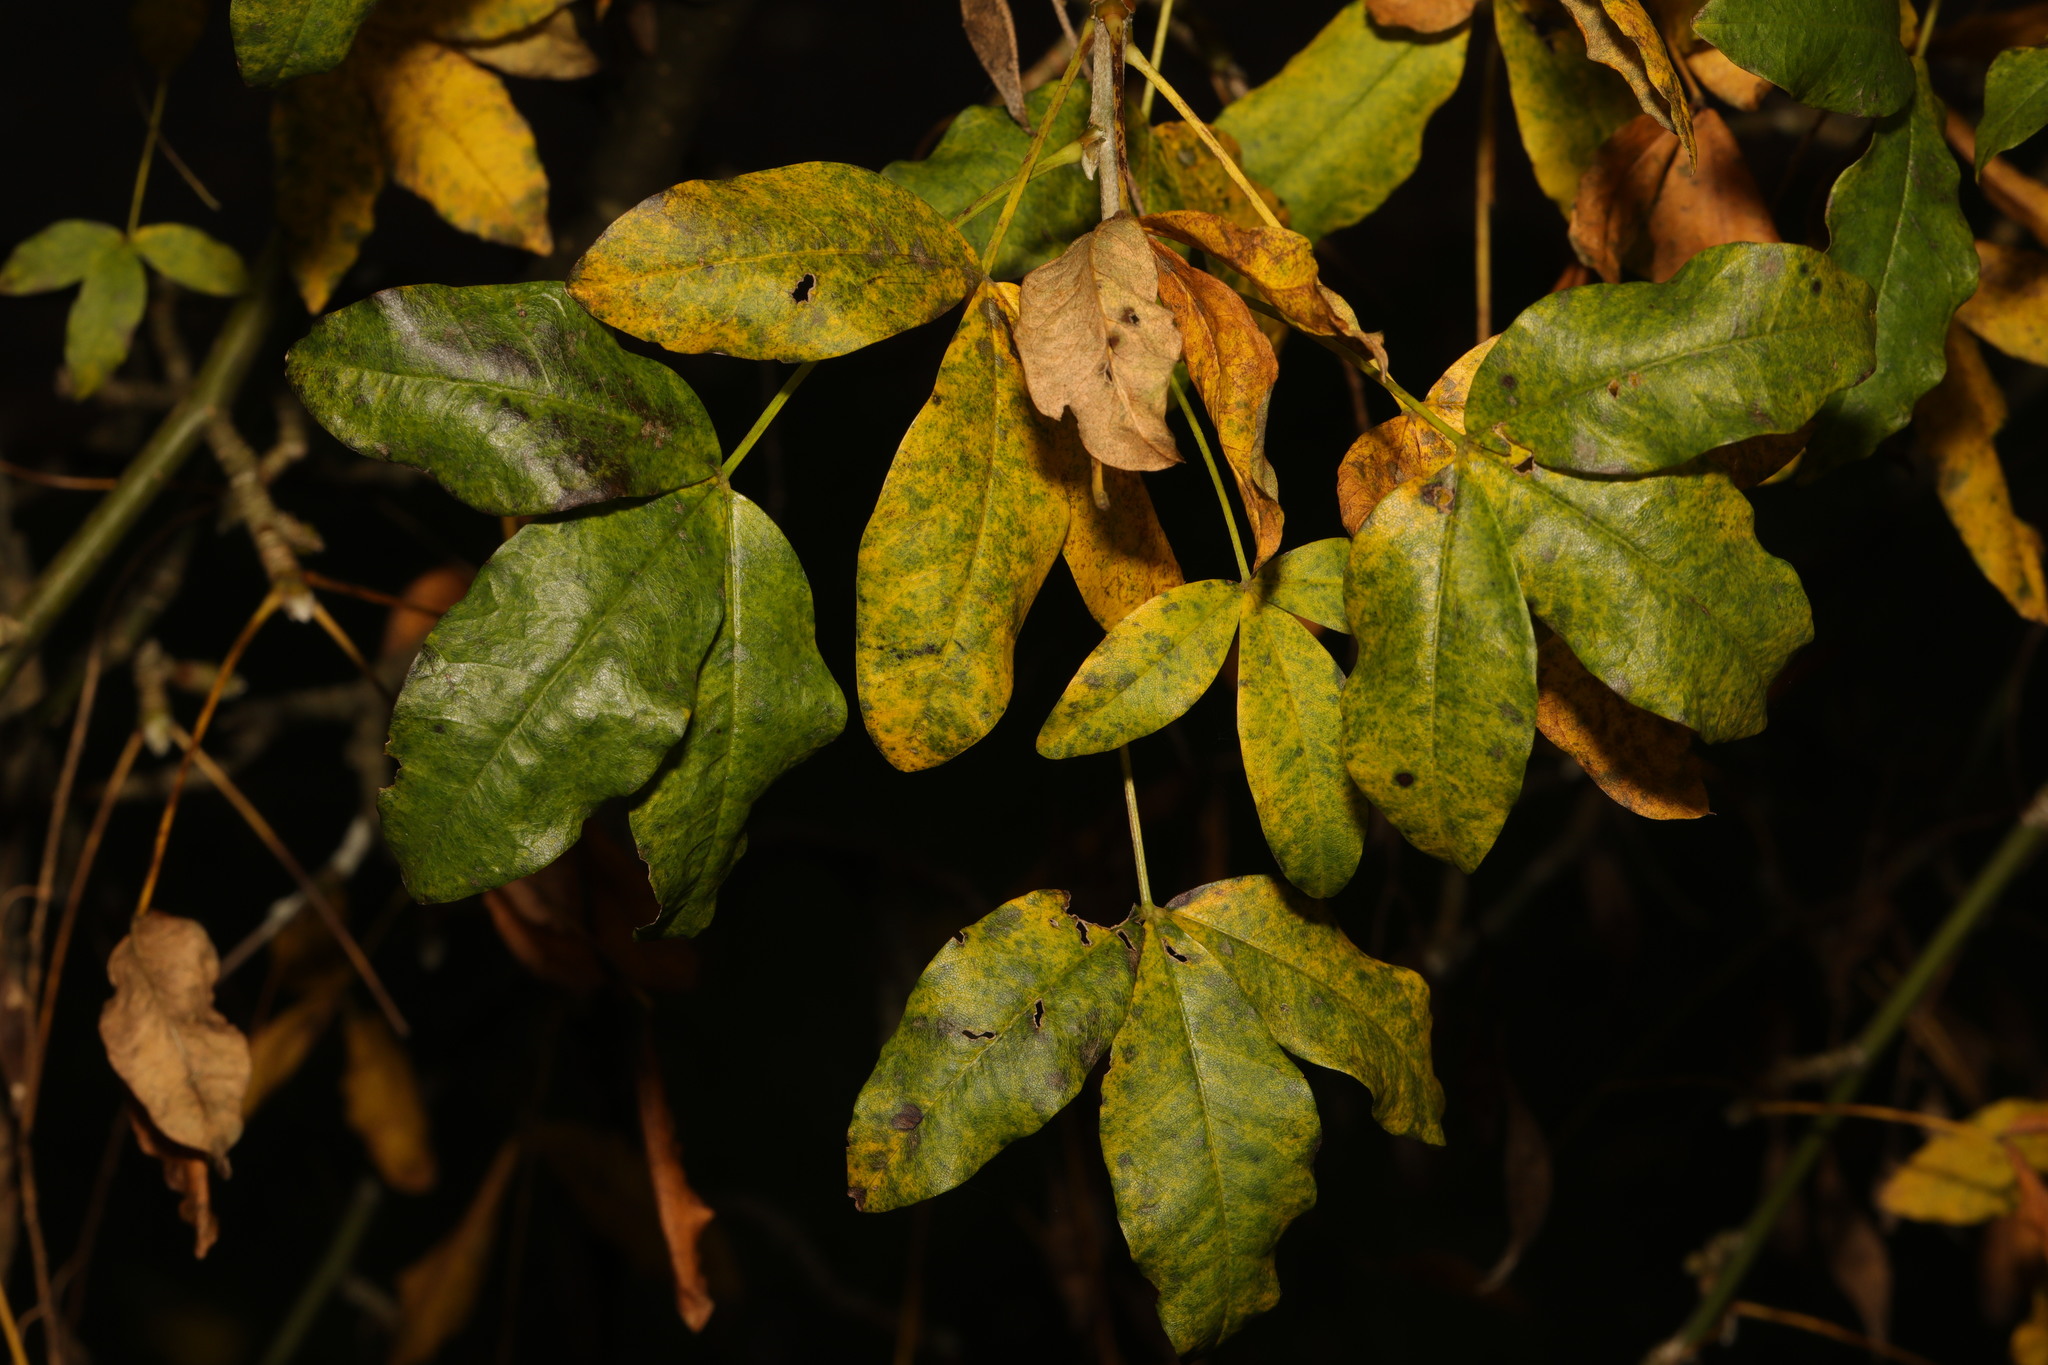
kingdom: Plantae
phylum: Tracheophyta
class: Magnoliopsida
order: Fabales
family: Fabaceae
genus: Laburnum
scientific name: Laburnum anagyroides
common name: Laburnum
